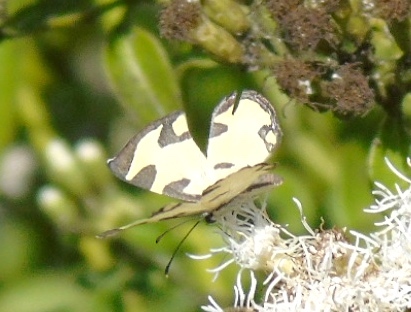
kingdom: Animalia
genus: Baeotis
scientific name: Baeotis zonata
